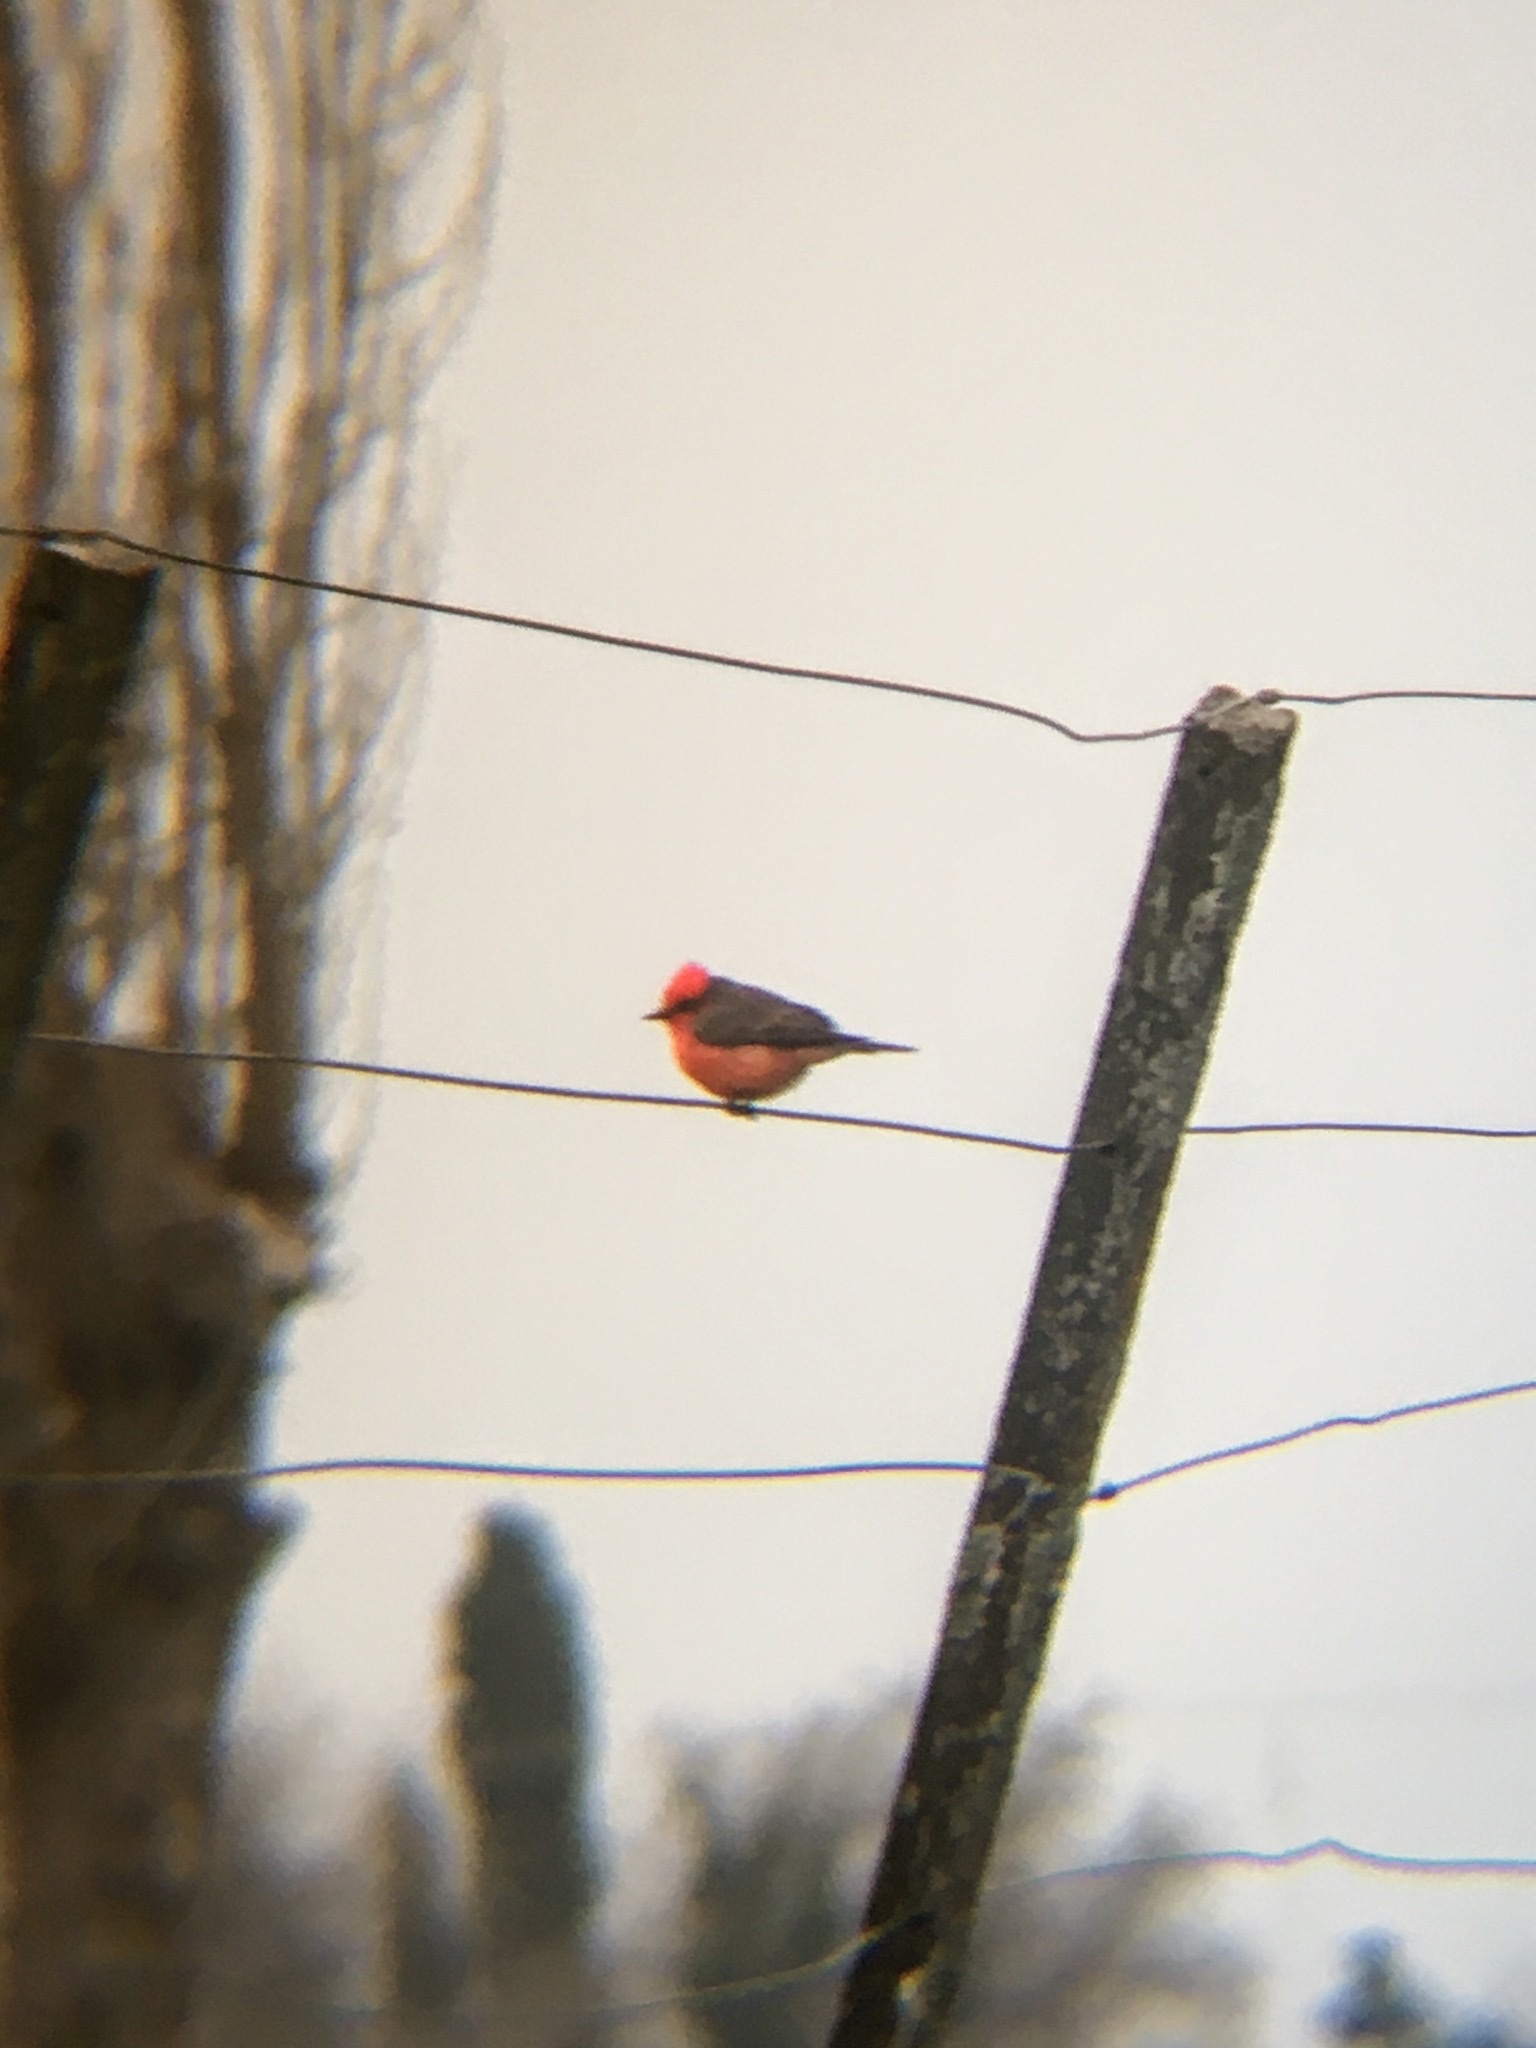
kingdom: Animalia
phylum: Chordata
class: Aves
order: Passeriformes
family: Tyrannidae
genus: Pyrocephalus
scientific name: Pyrocephalus rubinus
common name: Vermilion flycatcher
